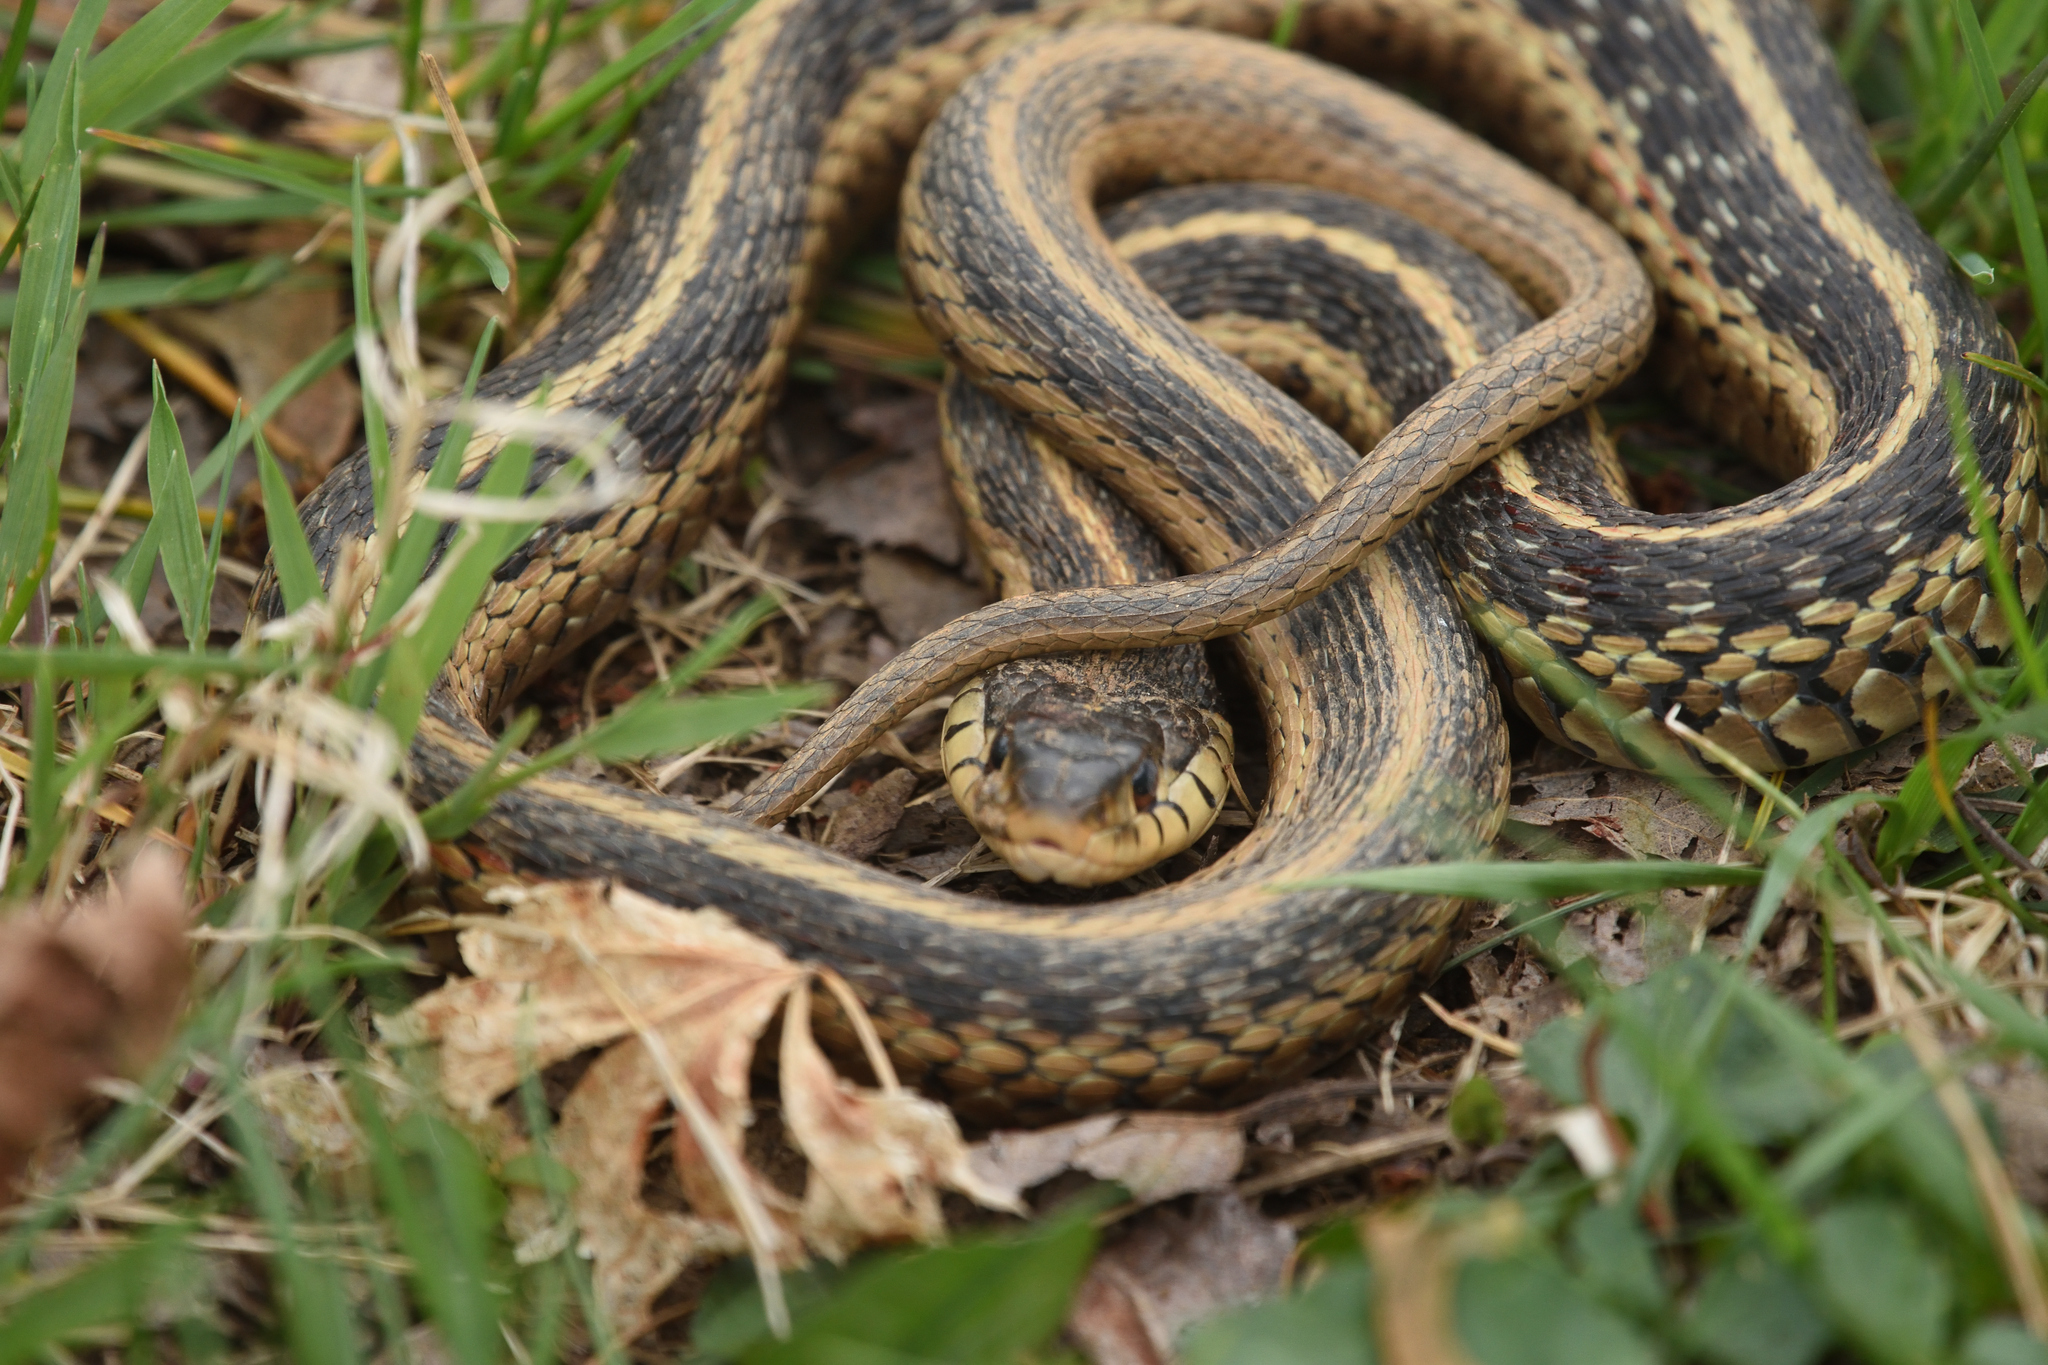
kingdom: Animalia
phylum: Chordata
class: Squamata
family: Colubridae
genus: Thamnophis
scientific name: Thamnophis sirtalis
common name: Common garter snake
